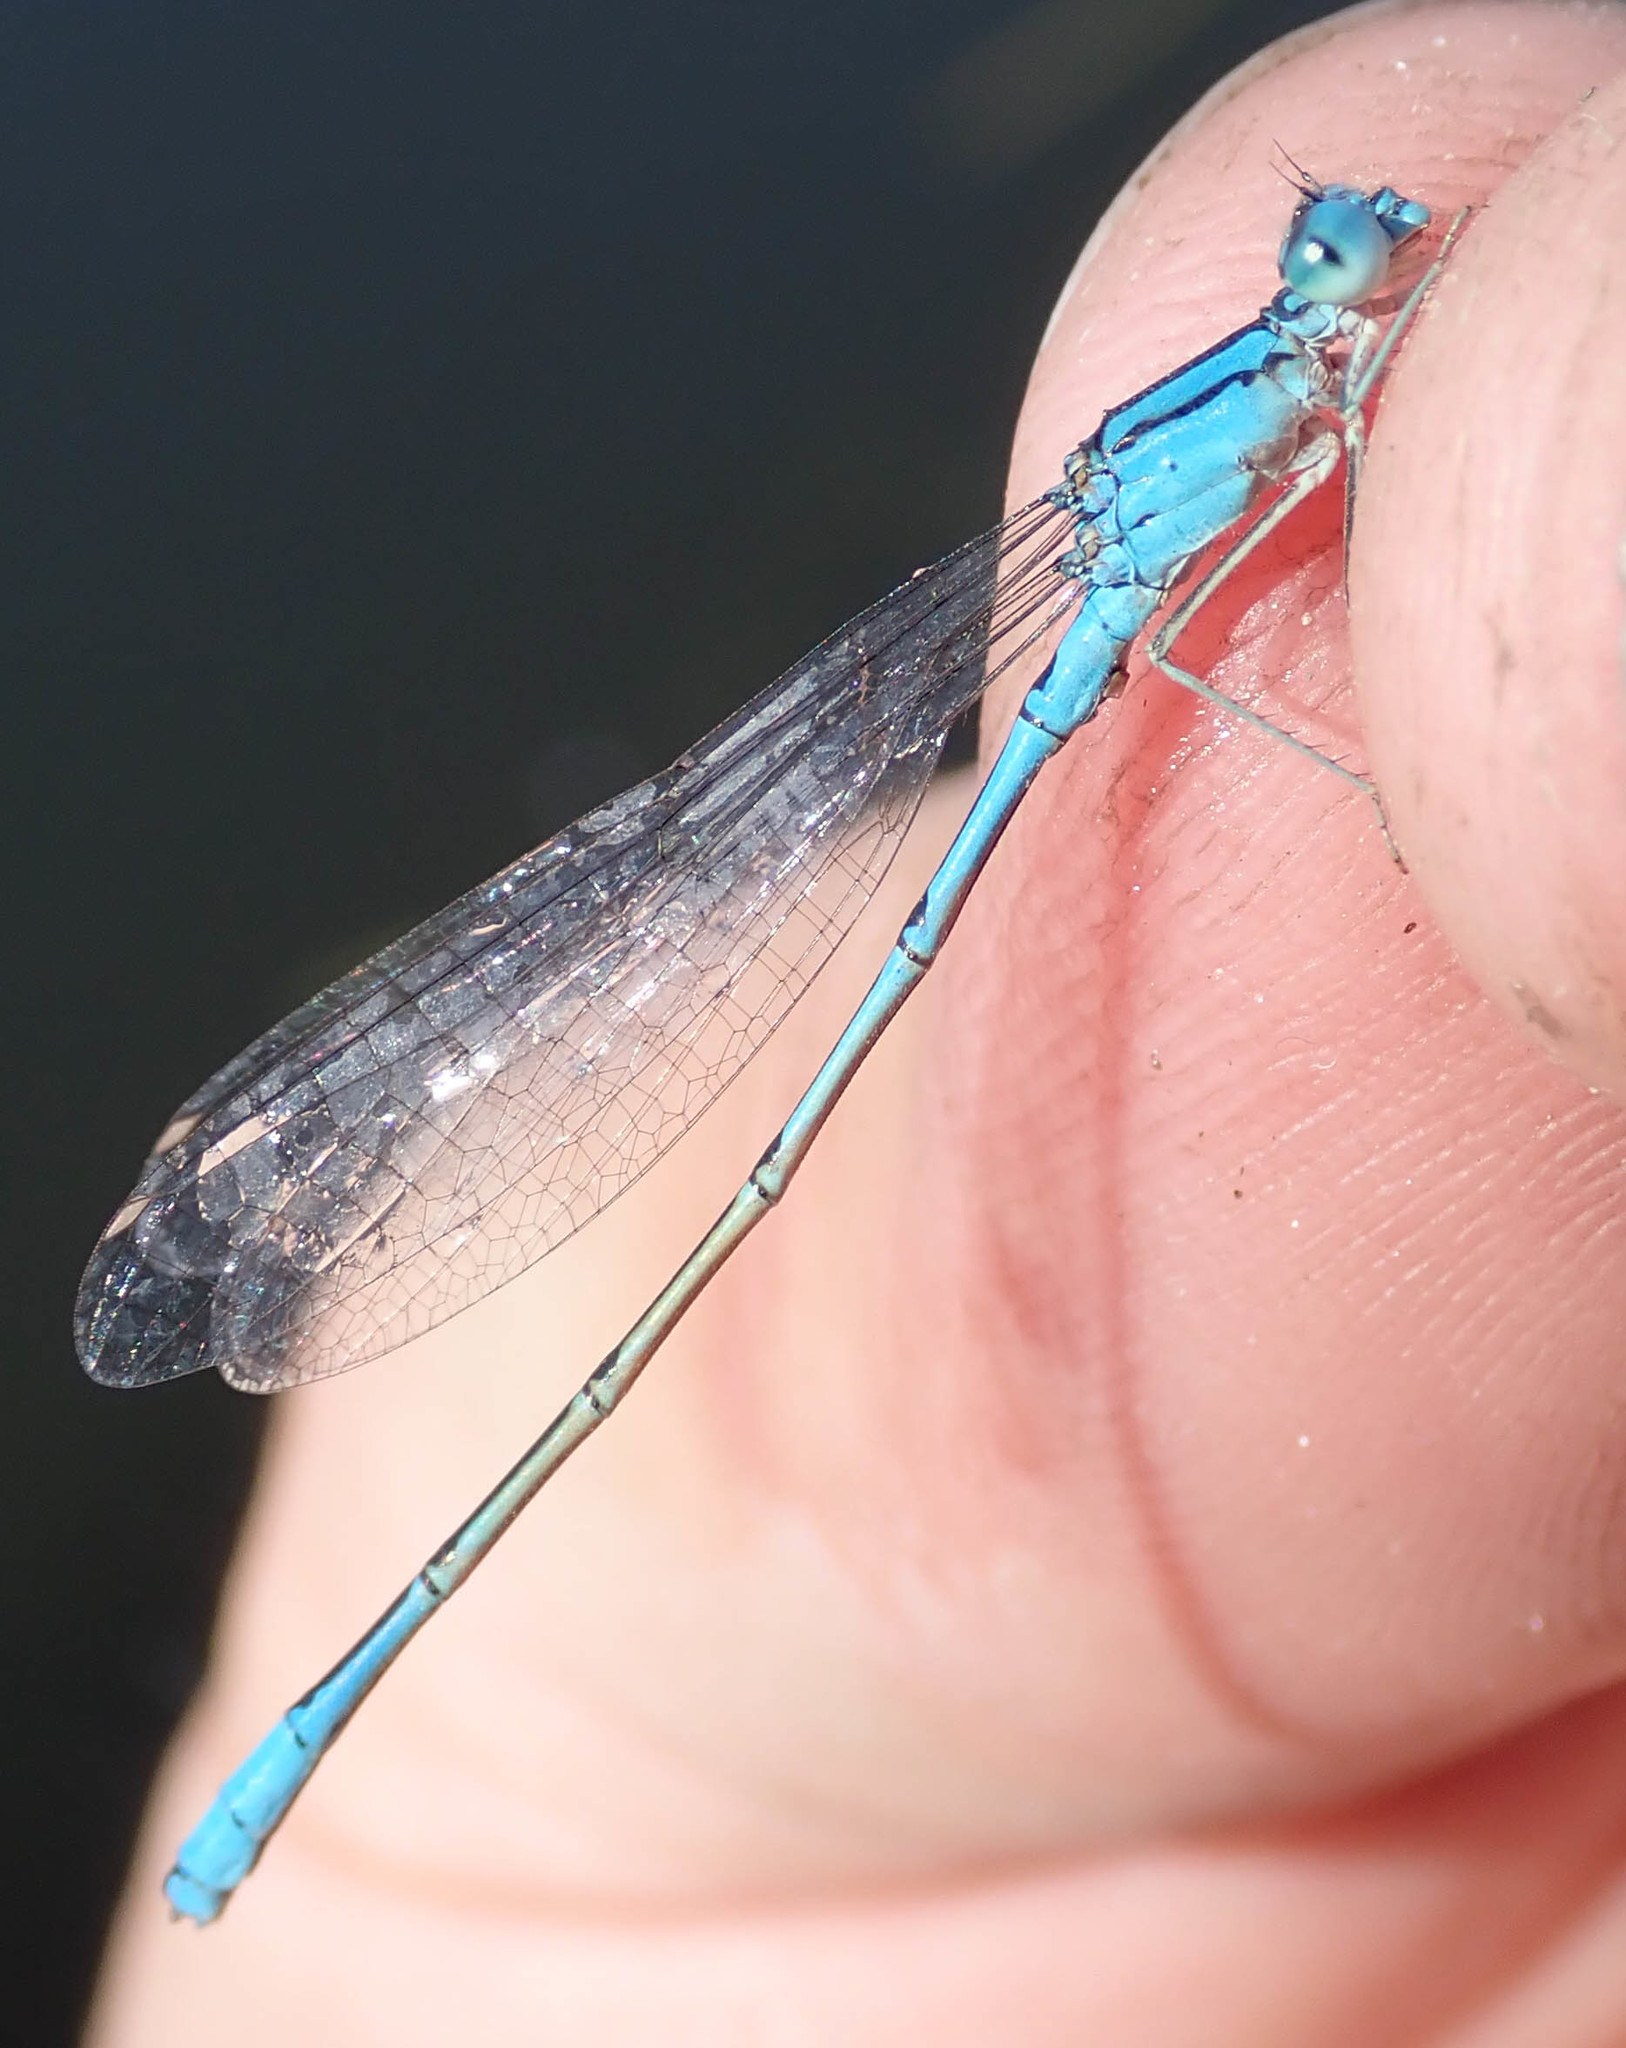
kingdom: Animalia
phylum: Arthropoda
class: Insecta
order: Odonata
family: Coenagrionidae
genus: Pseudagrion
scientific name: Pseudagrion assegaii
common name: Assegaai sprite
